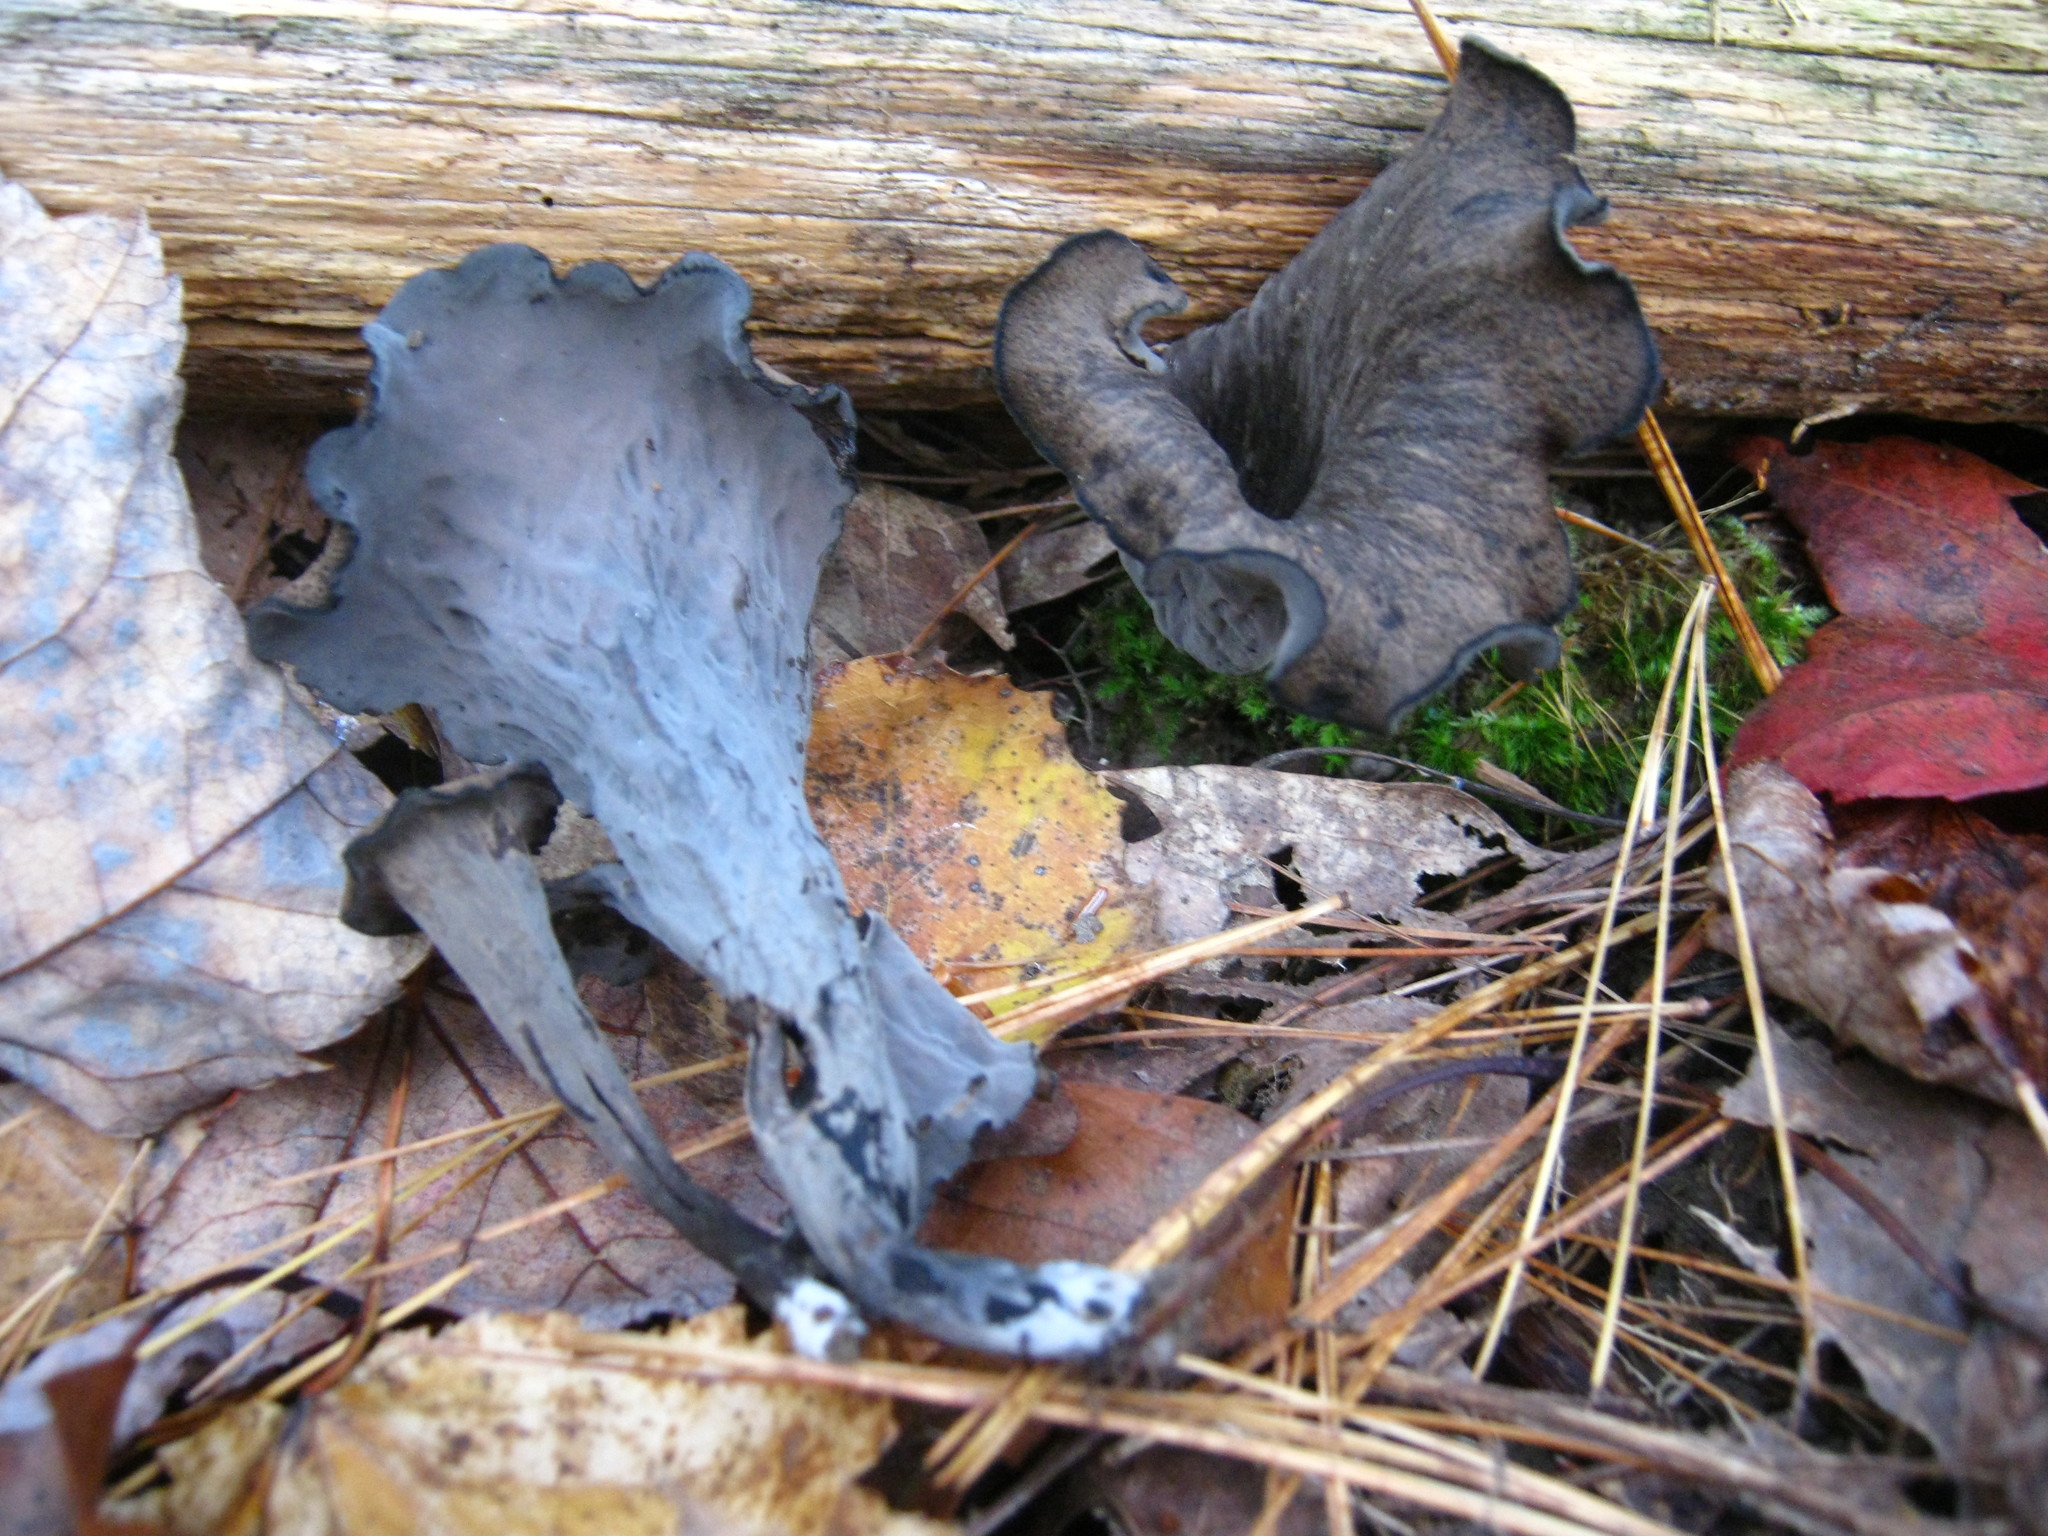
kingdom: Fungi
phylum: Basidiomycota
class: Agaricomycetes
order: Cantharellales
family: Hydnaceae
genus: Craterellus
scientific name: Craterellus cornucopioides
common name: Horn of plenty
